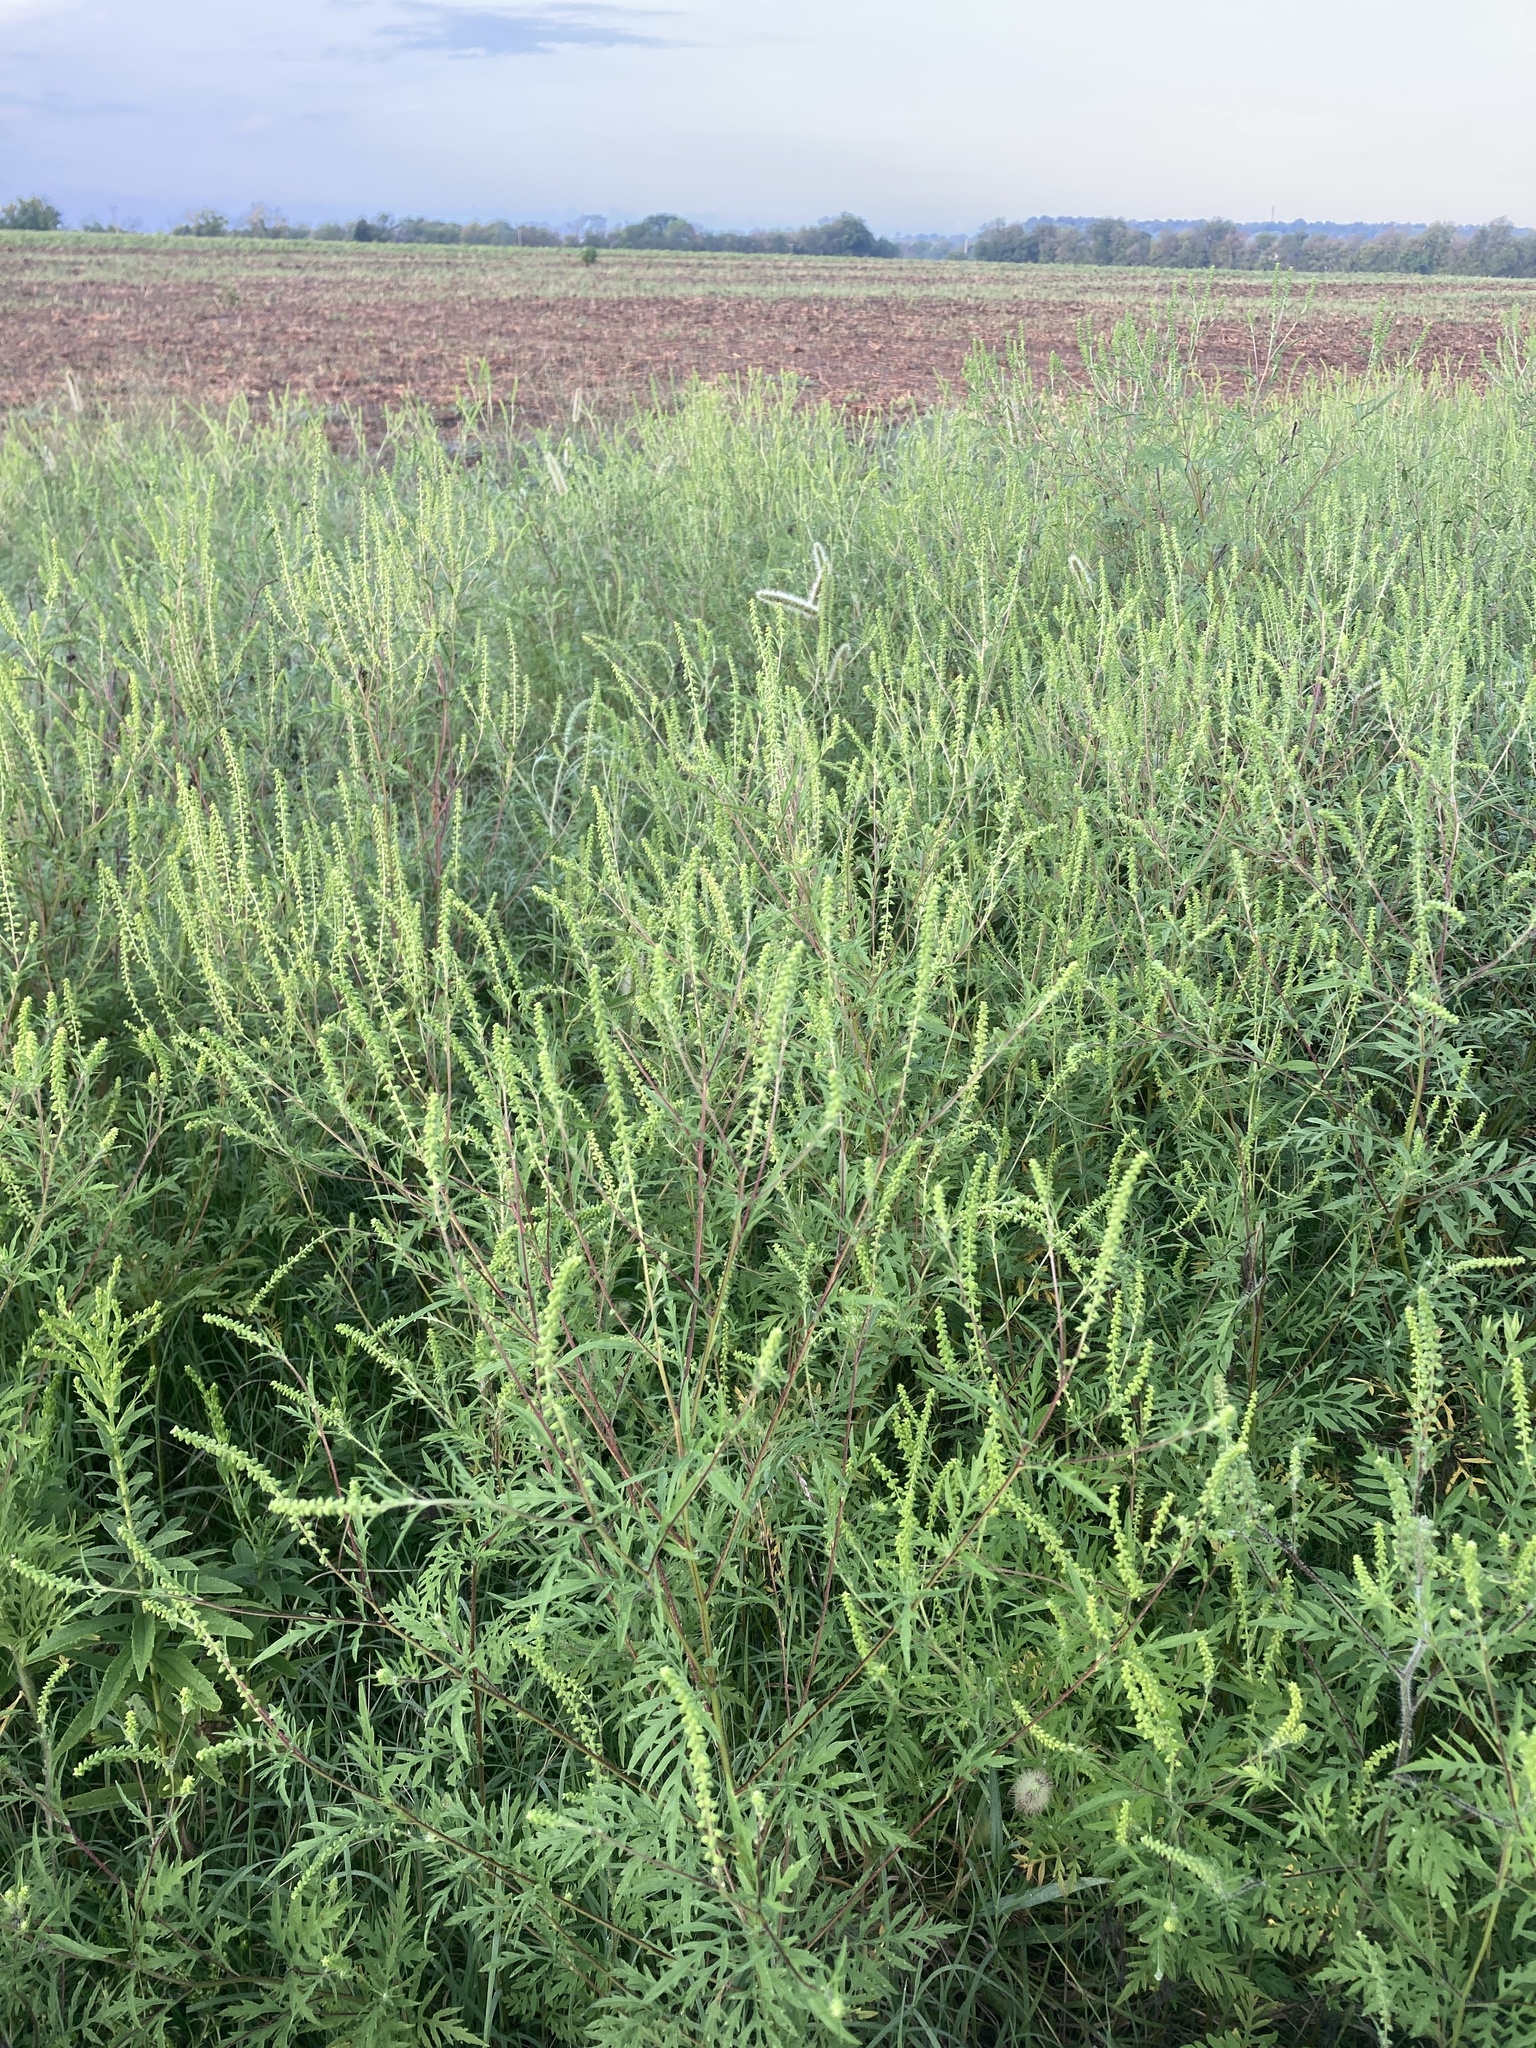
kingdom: Plantae
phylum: Tracheophyta
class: Magnoliopsida
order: Asterales
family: Asteraceae
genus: Ambrosia
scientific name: Ambrosia artemisiifolia
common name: Annual ragweed
